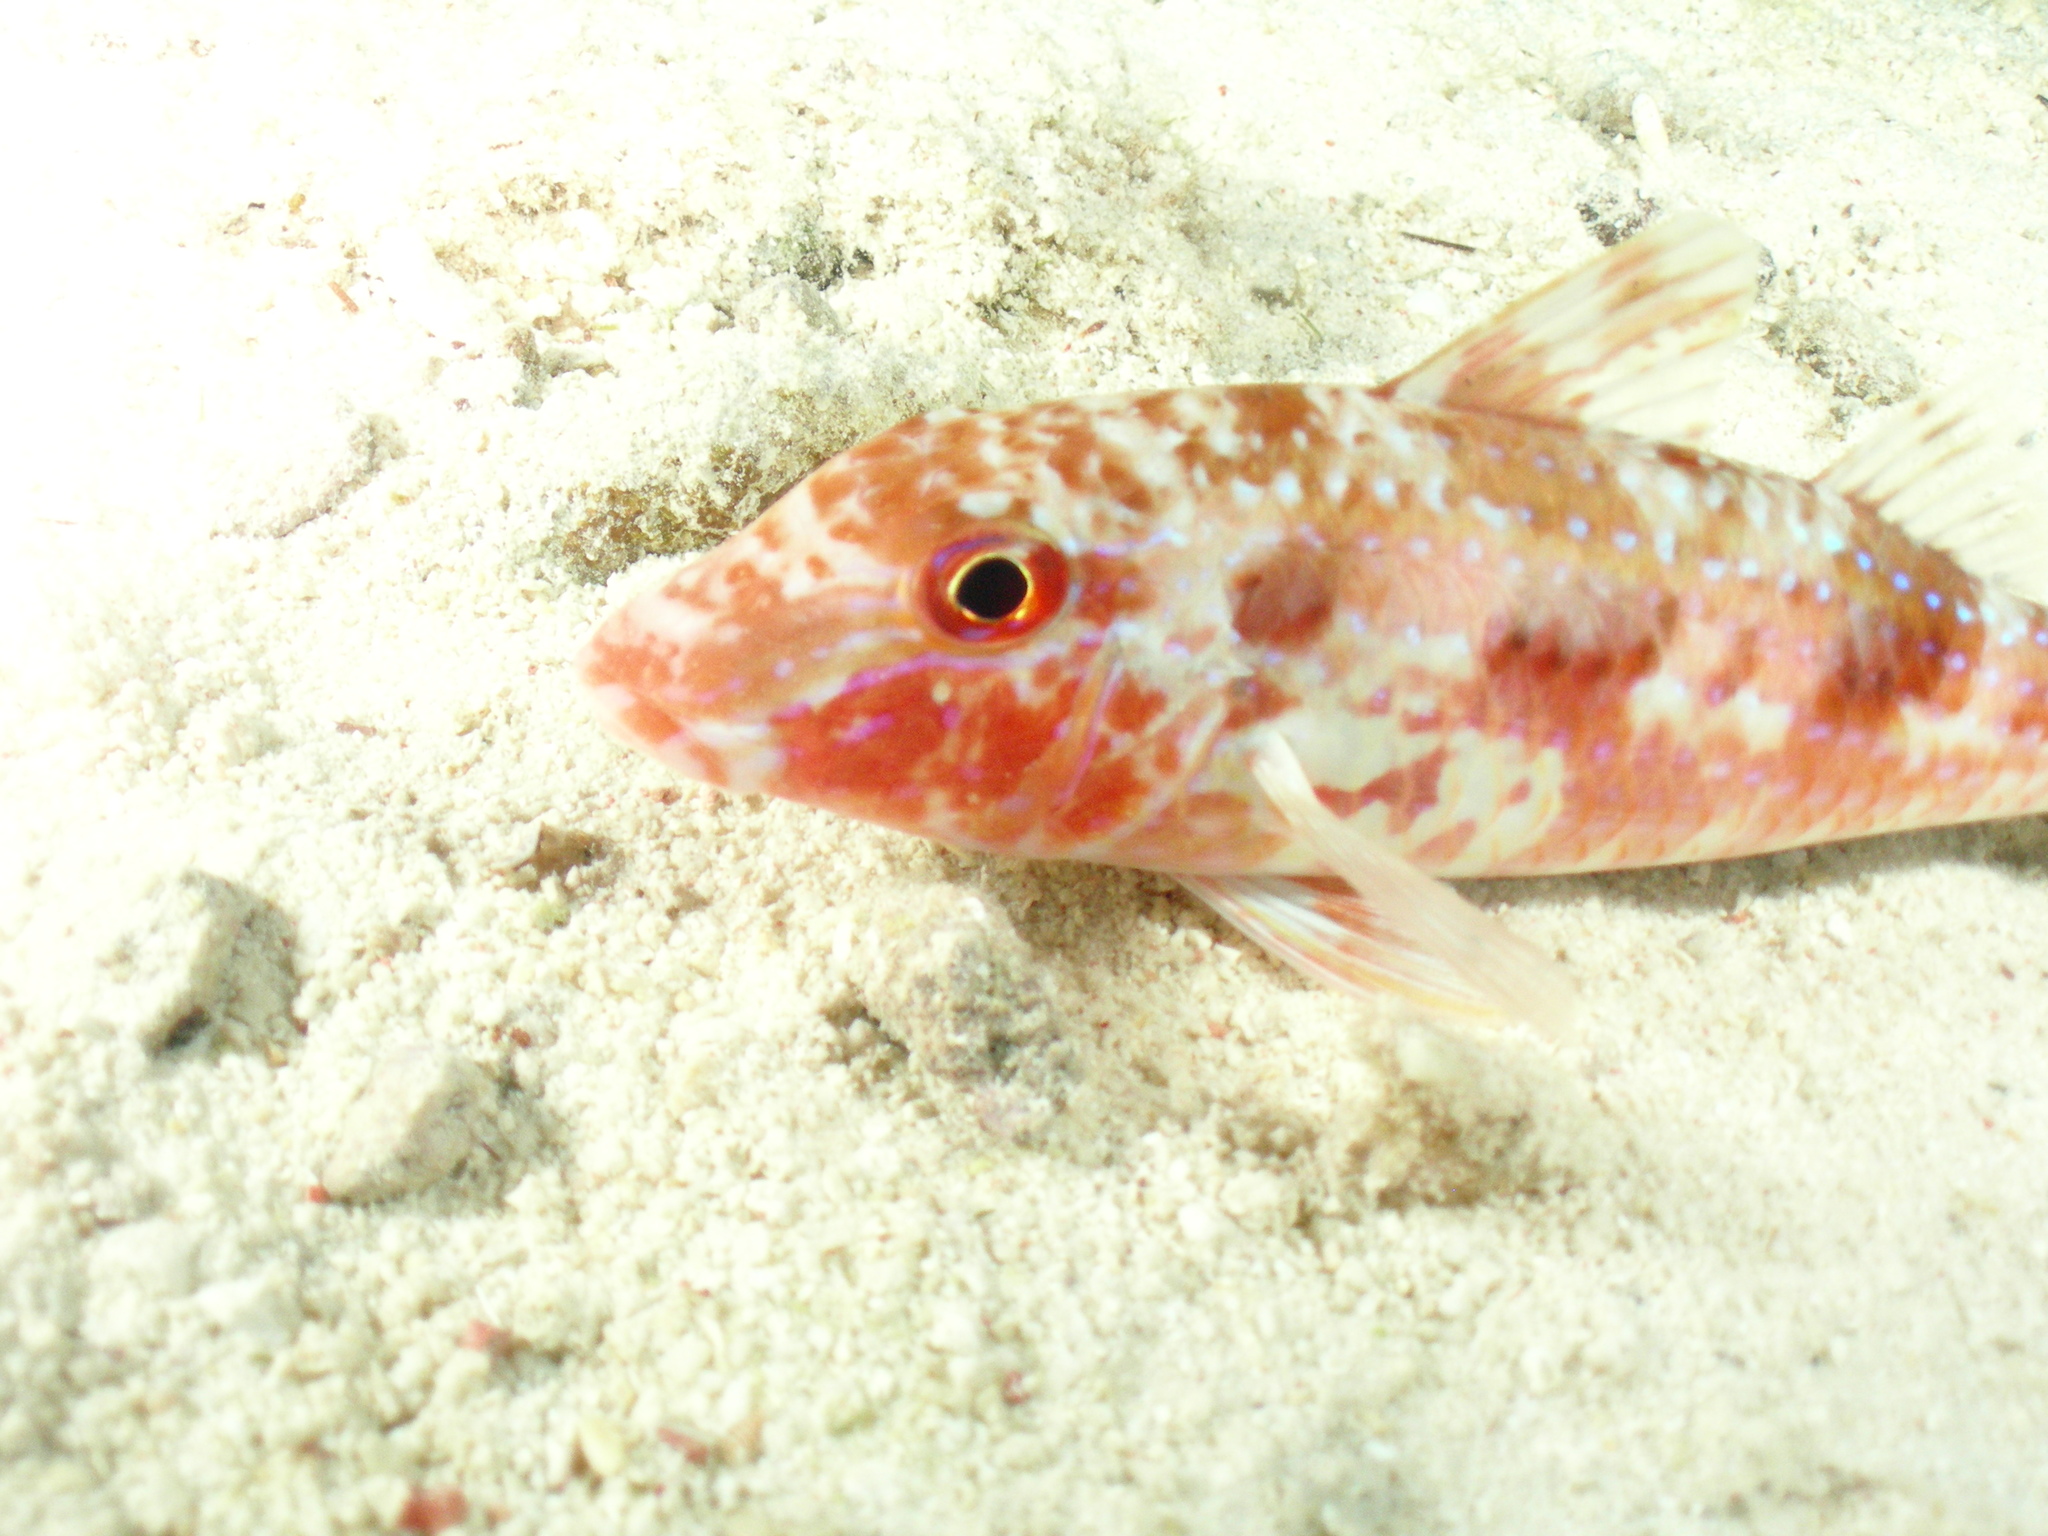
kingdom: Animalia
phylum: Chordata
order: Perciformes
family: Mullidae
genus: Pseudupeneus
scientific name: Pseudupeneus maculatus
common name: Spotted goatfish
